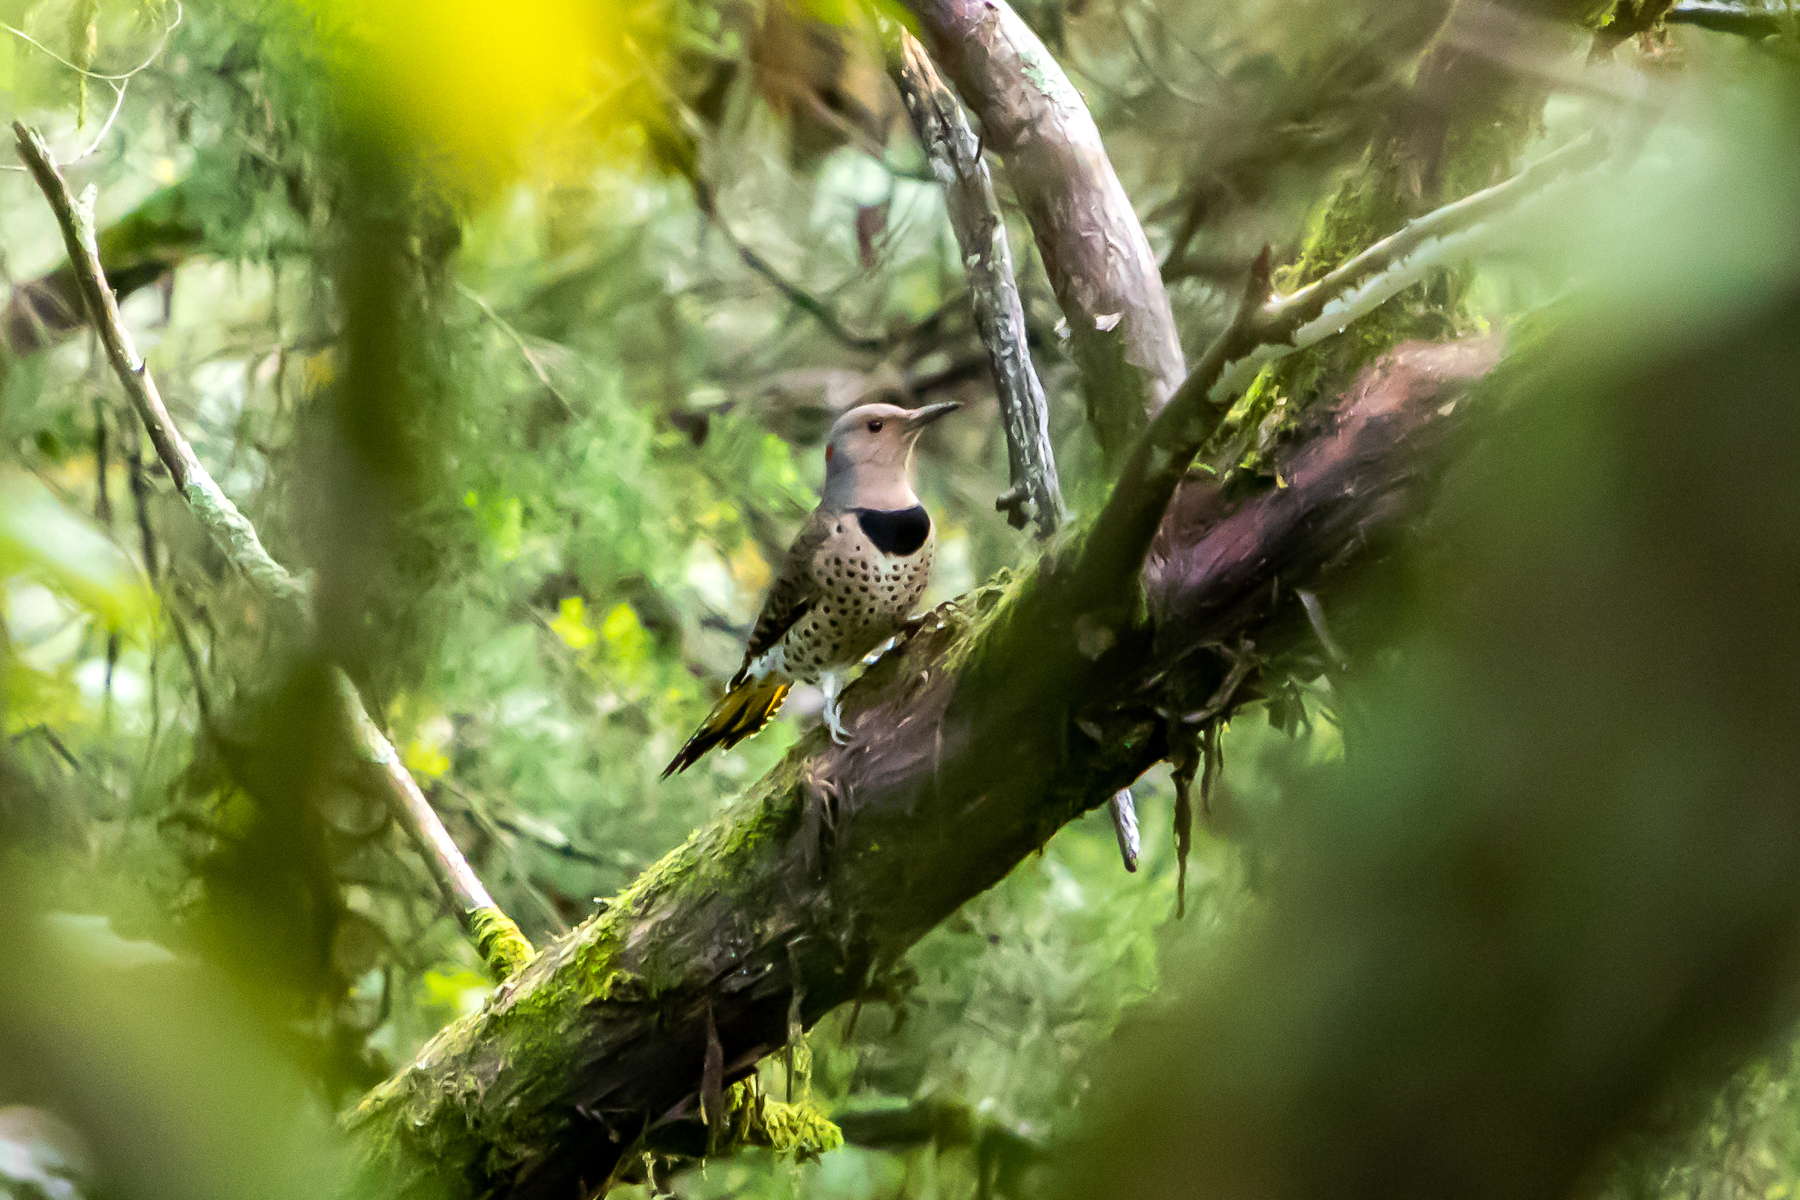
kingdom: Animalia
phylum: Chordata
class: Aves
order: Piciformes
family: Picidae
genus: Colaptes
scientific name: Colaptes auratus
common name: Northern flicker
